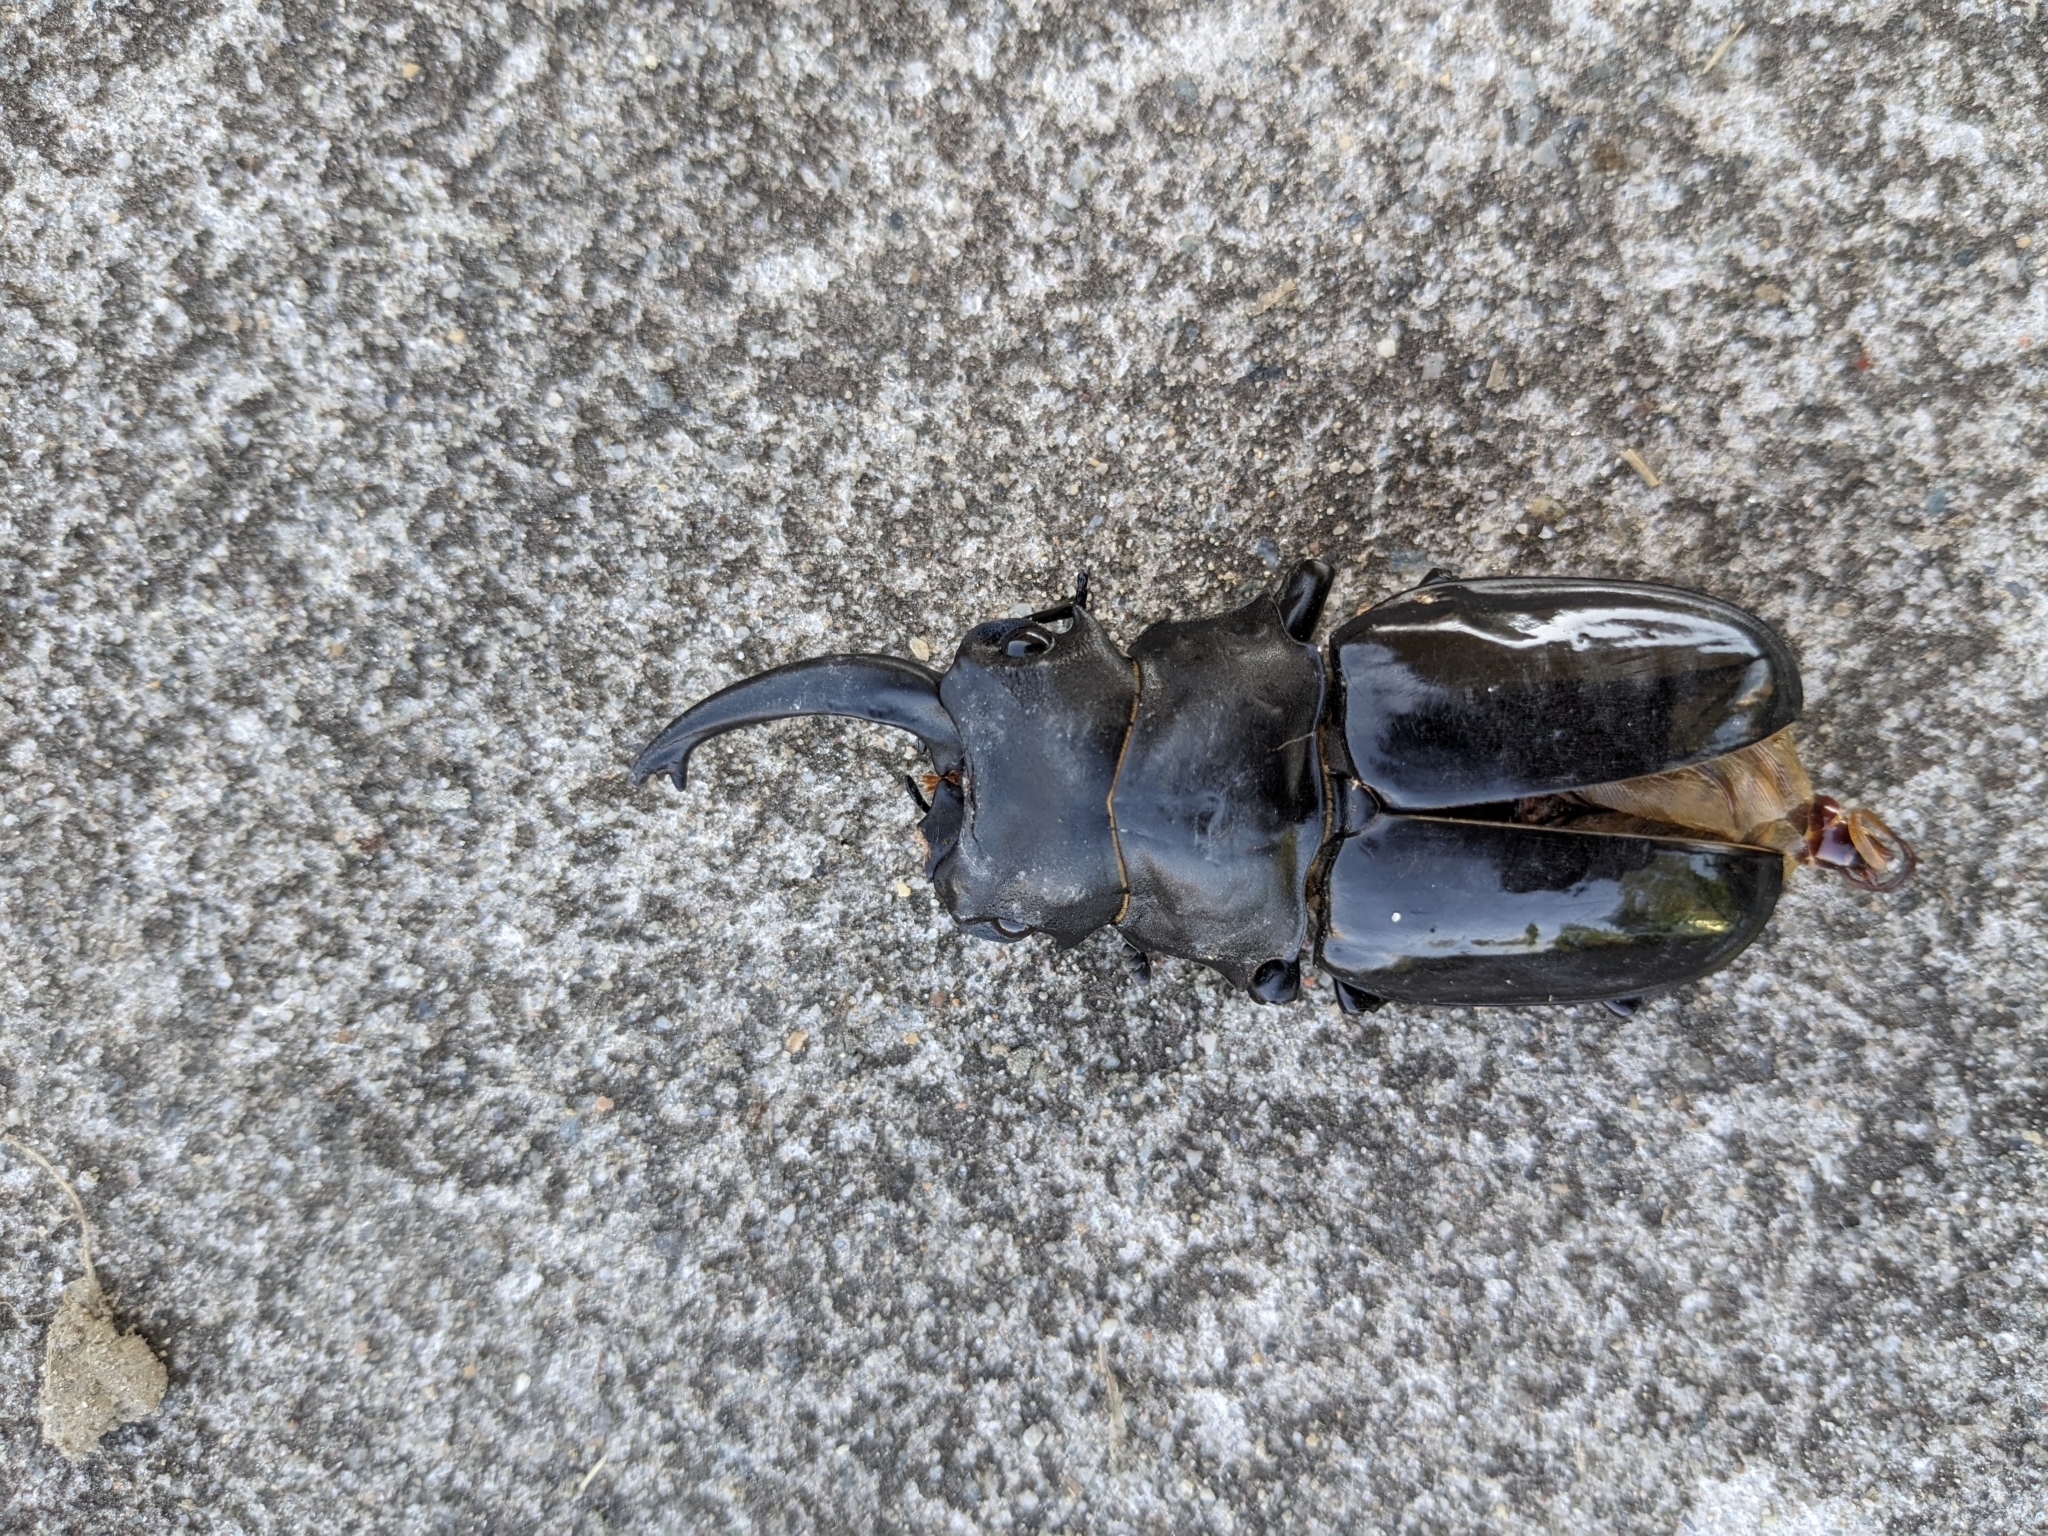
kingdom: Animalia
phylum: Arthropoda
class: Insecta
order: Coleoptera
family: Lucanidae
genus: Odontolabis
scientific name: Odontolabis siva
